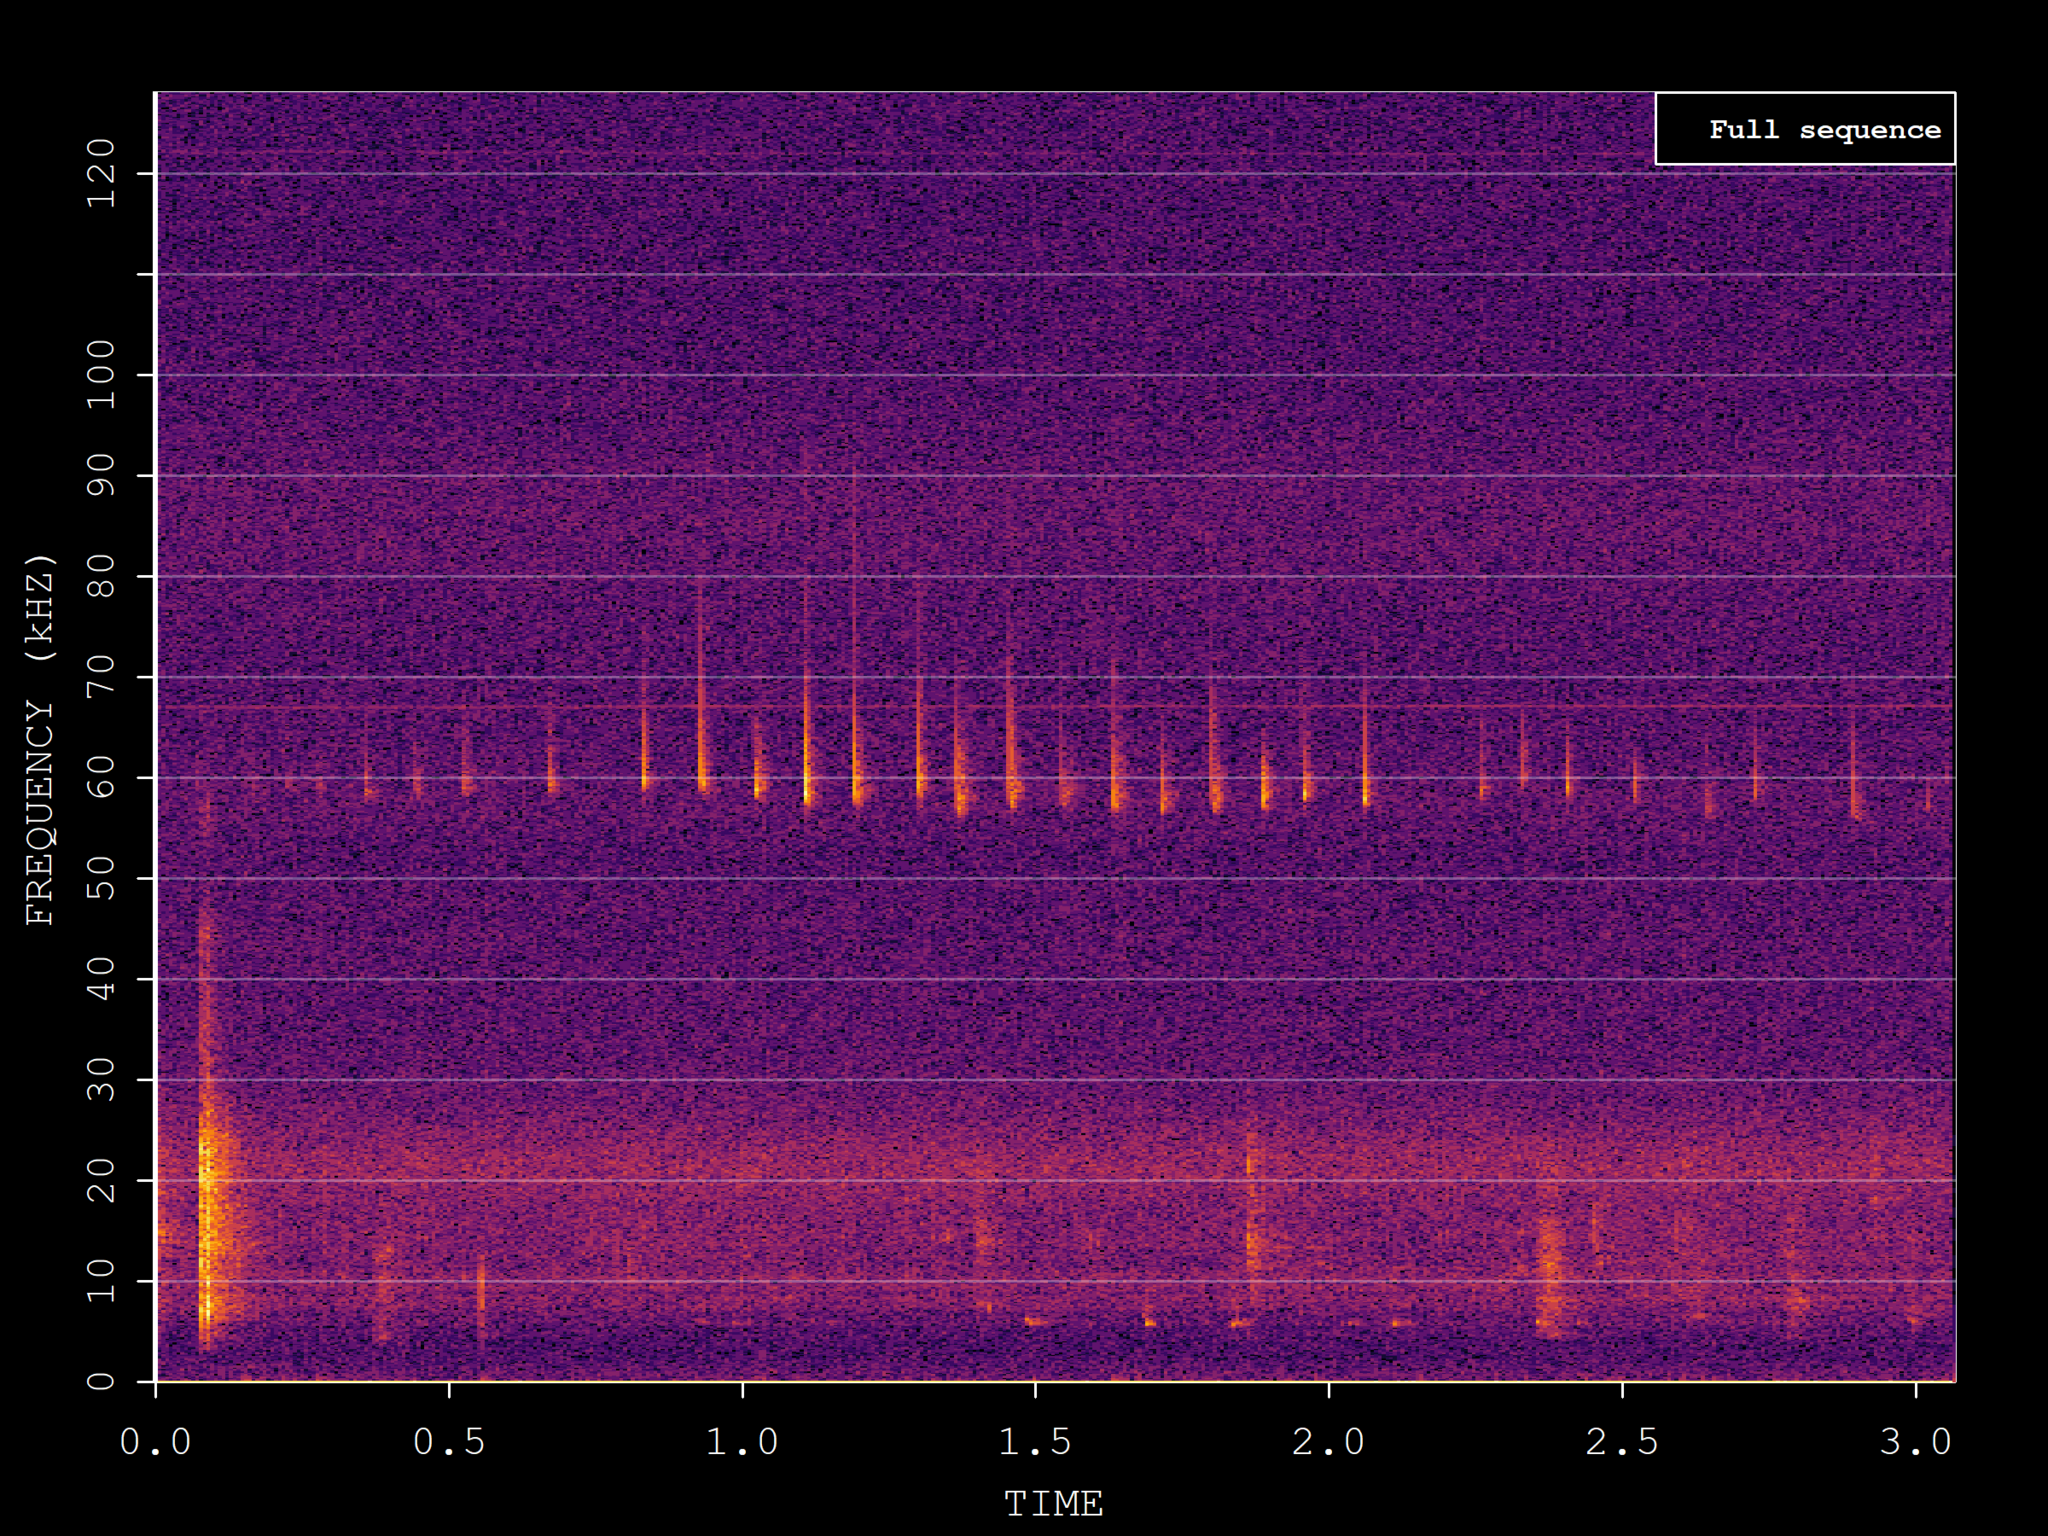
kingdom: Animalia
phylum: Chordata
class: Mammalia
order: Chiroptera
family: Vespertilionidae
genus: Pipistrellus
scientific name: Pipistrellus pygmaeus
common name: Soprano pipistrelle
